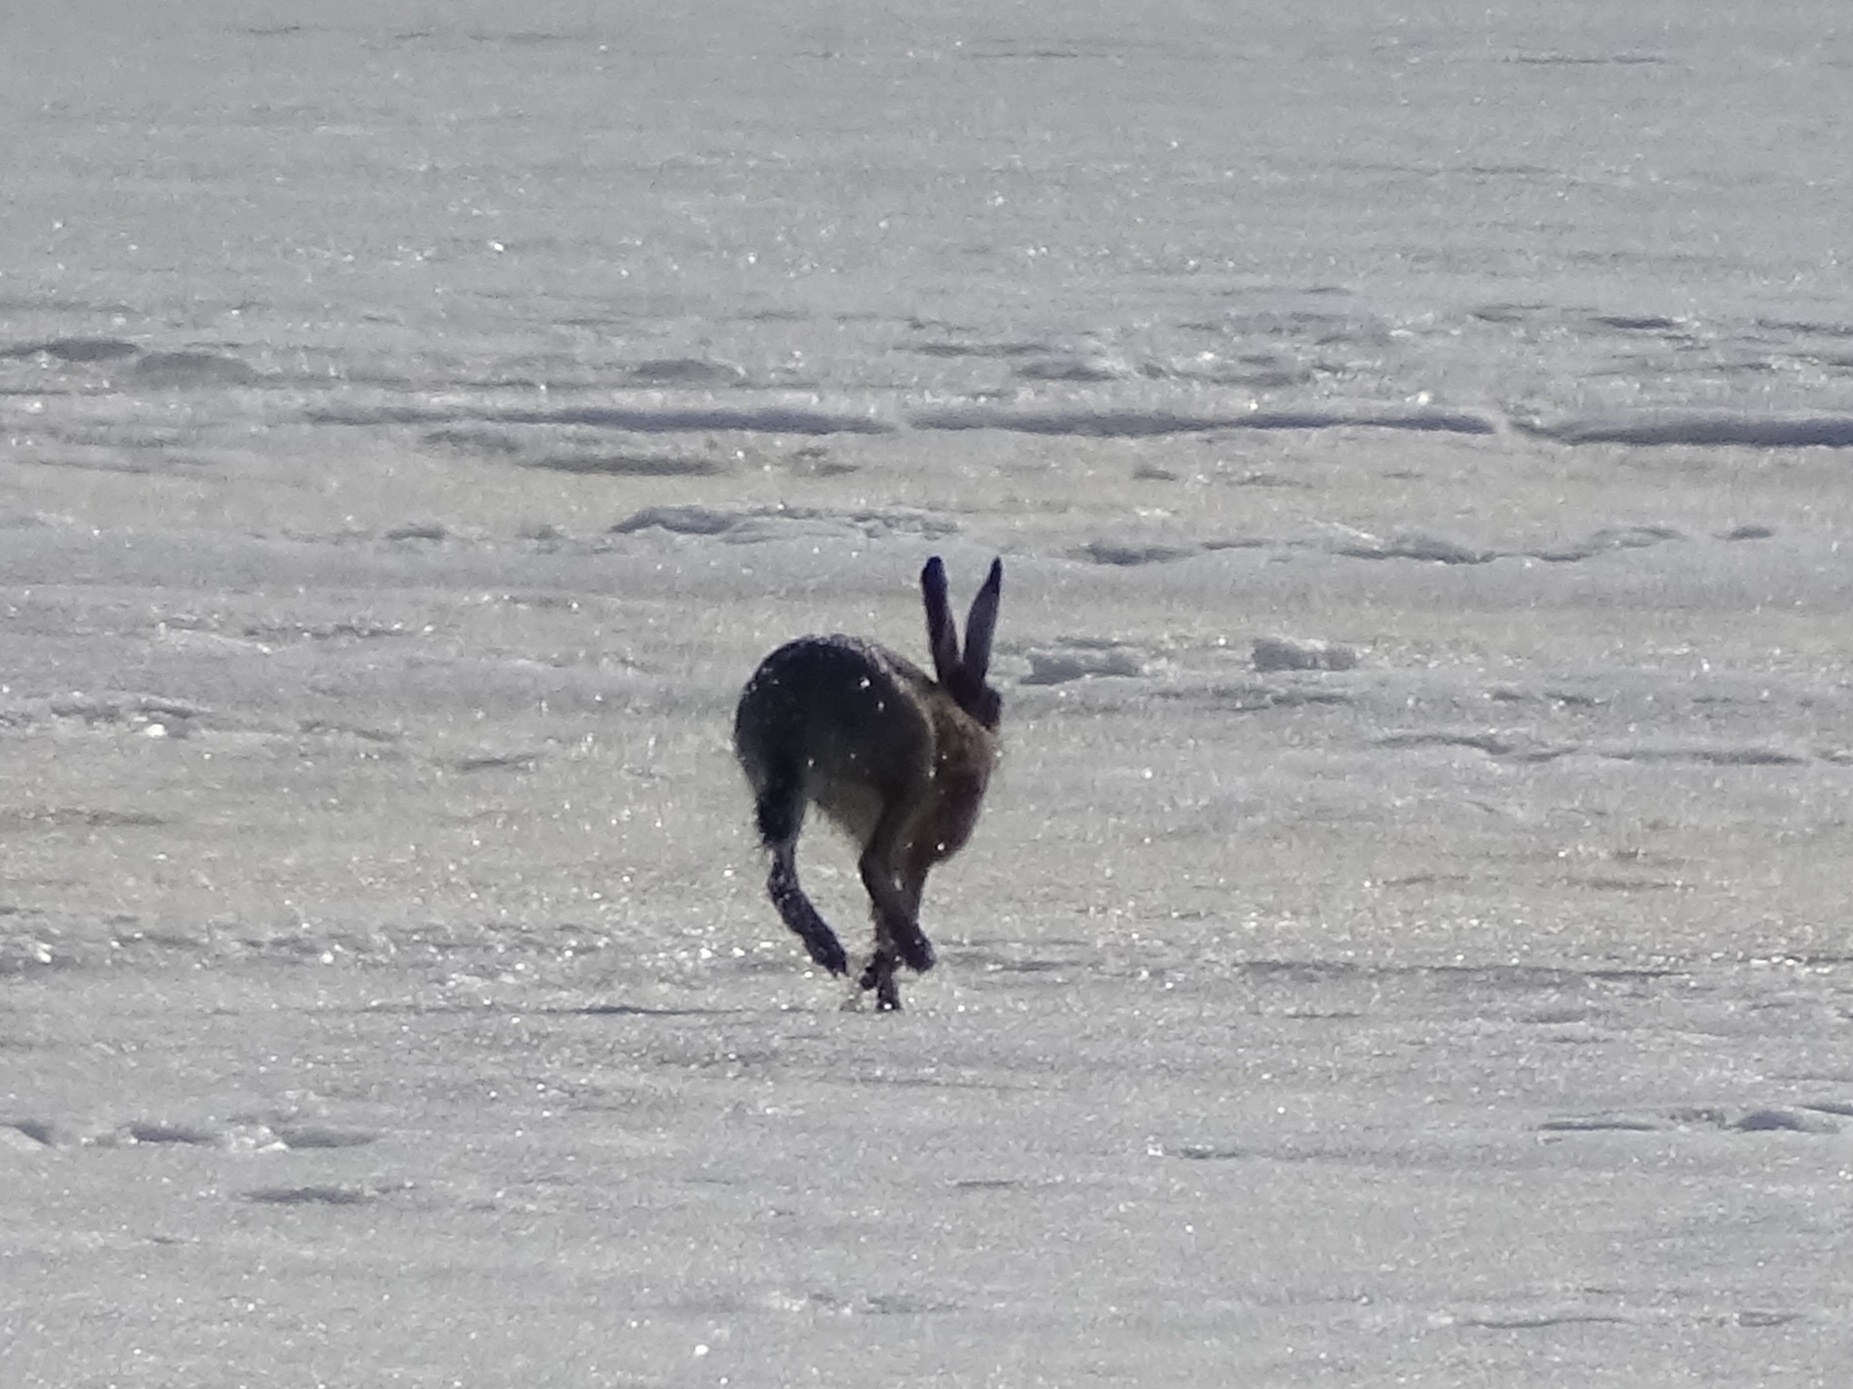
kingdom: Animalia
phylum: Chordata
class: Mammalia
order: Lagomorpha
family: Leporidae
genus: Lepus
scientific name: Lepus europaeus
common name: European hare
